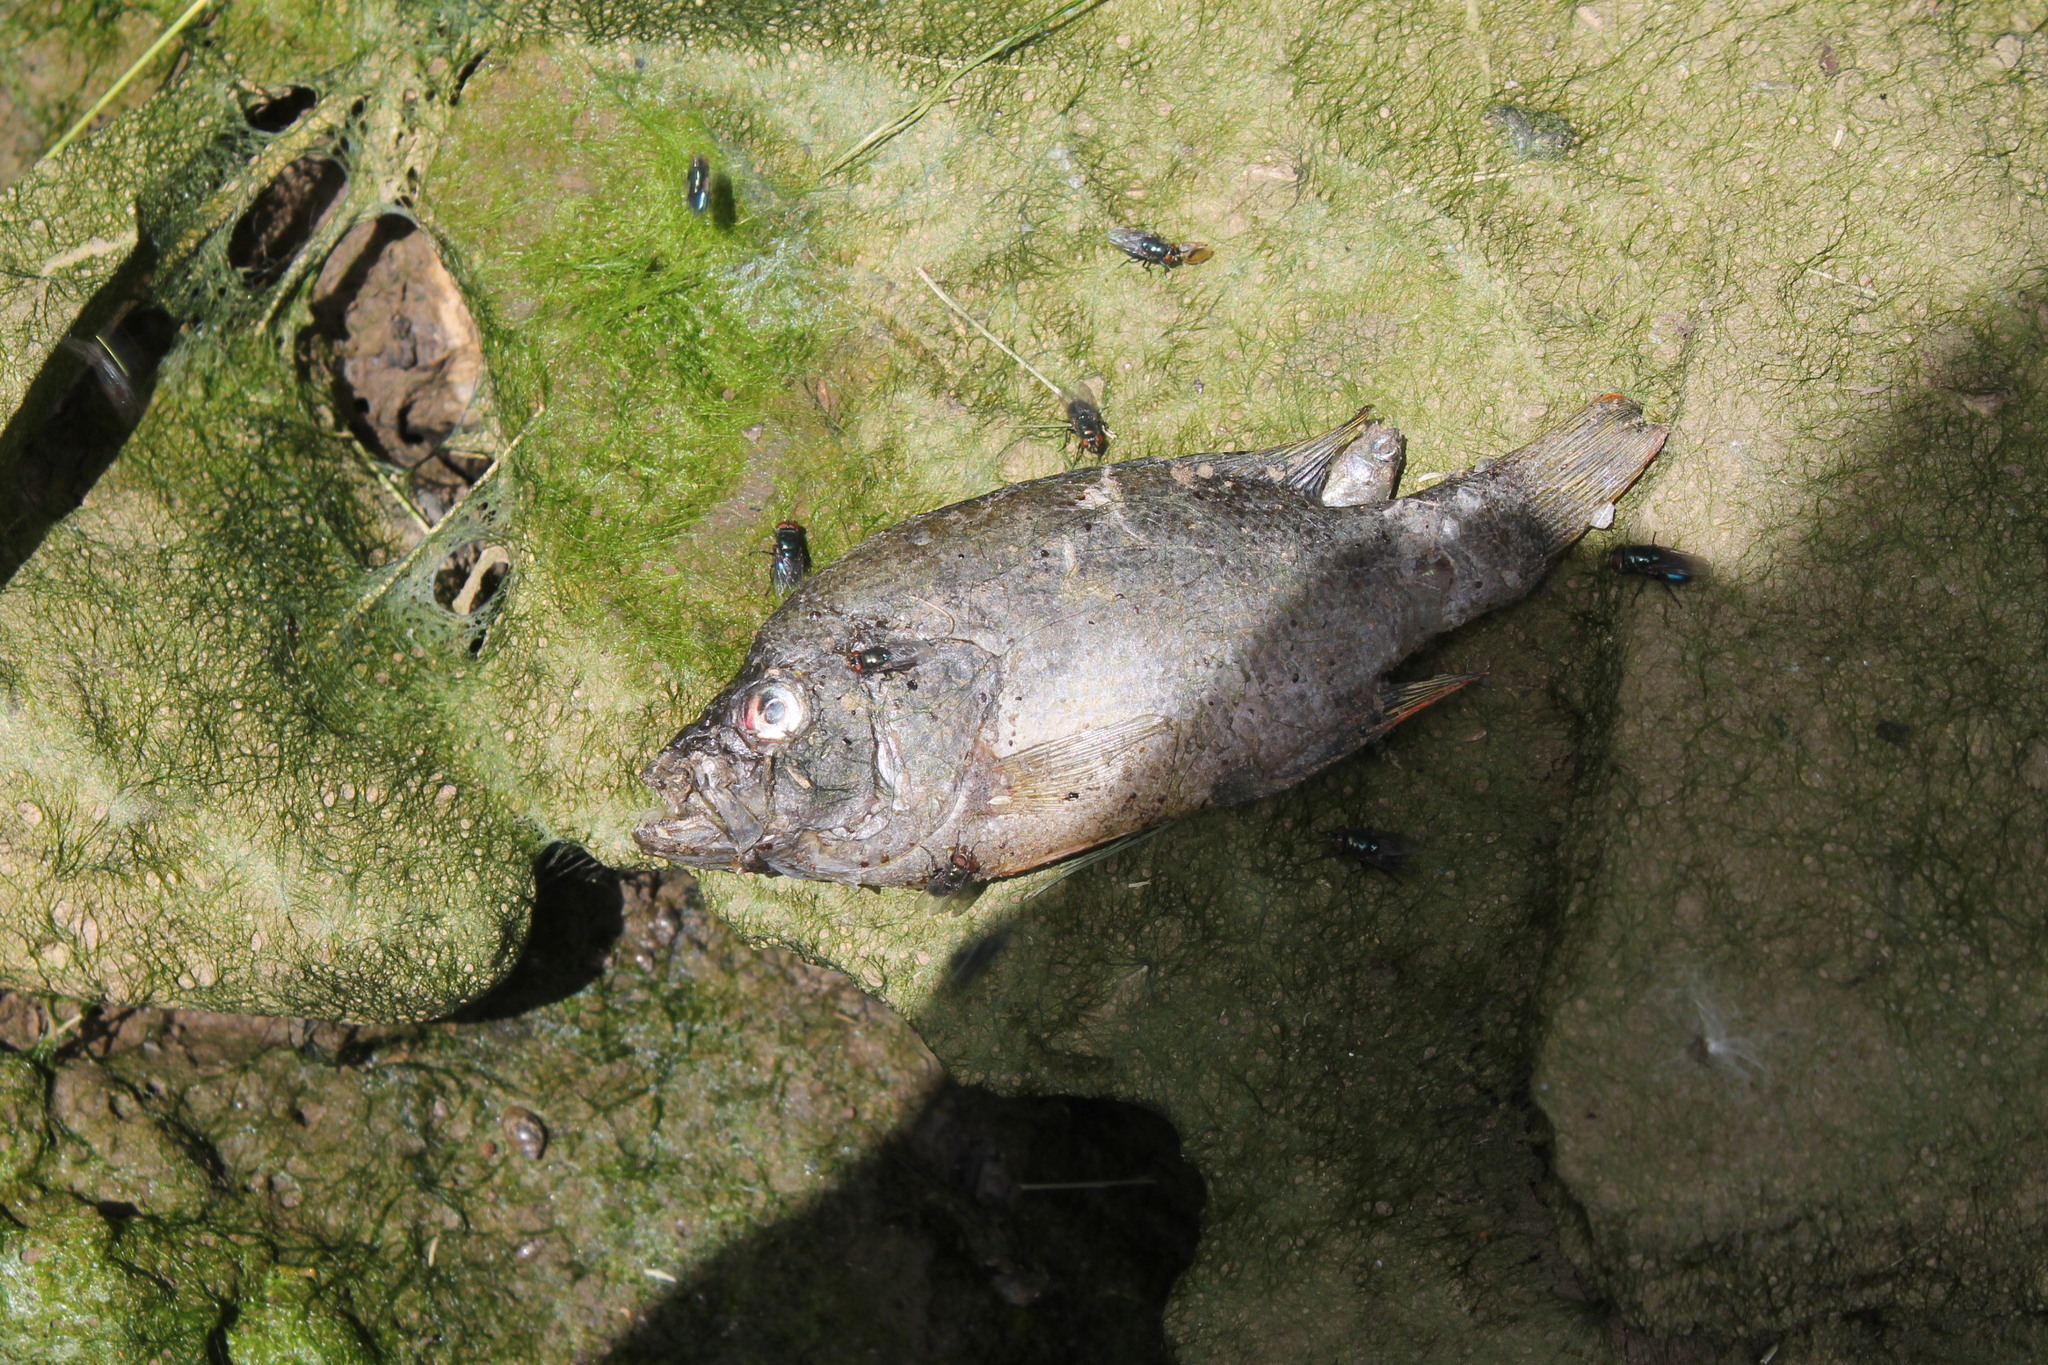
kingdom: Animalia
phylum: Chordata
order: Perciformes
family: Centrarchidae
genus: Lepomis
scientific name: Lepomis macrochirus
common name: Bluegill
